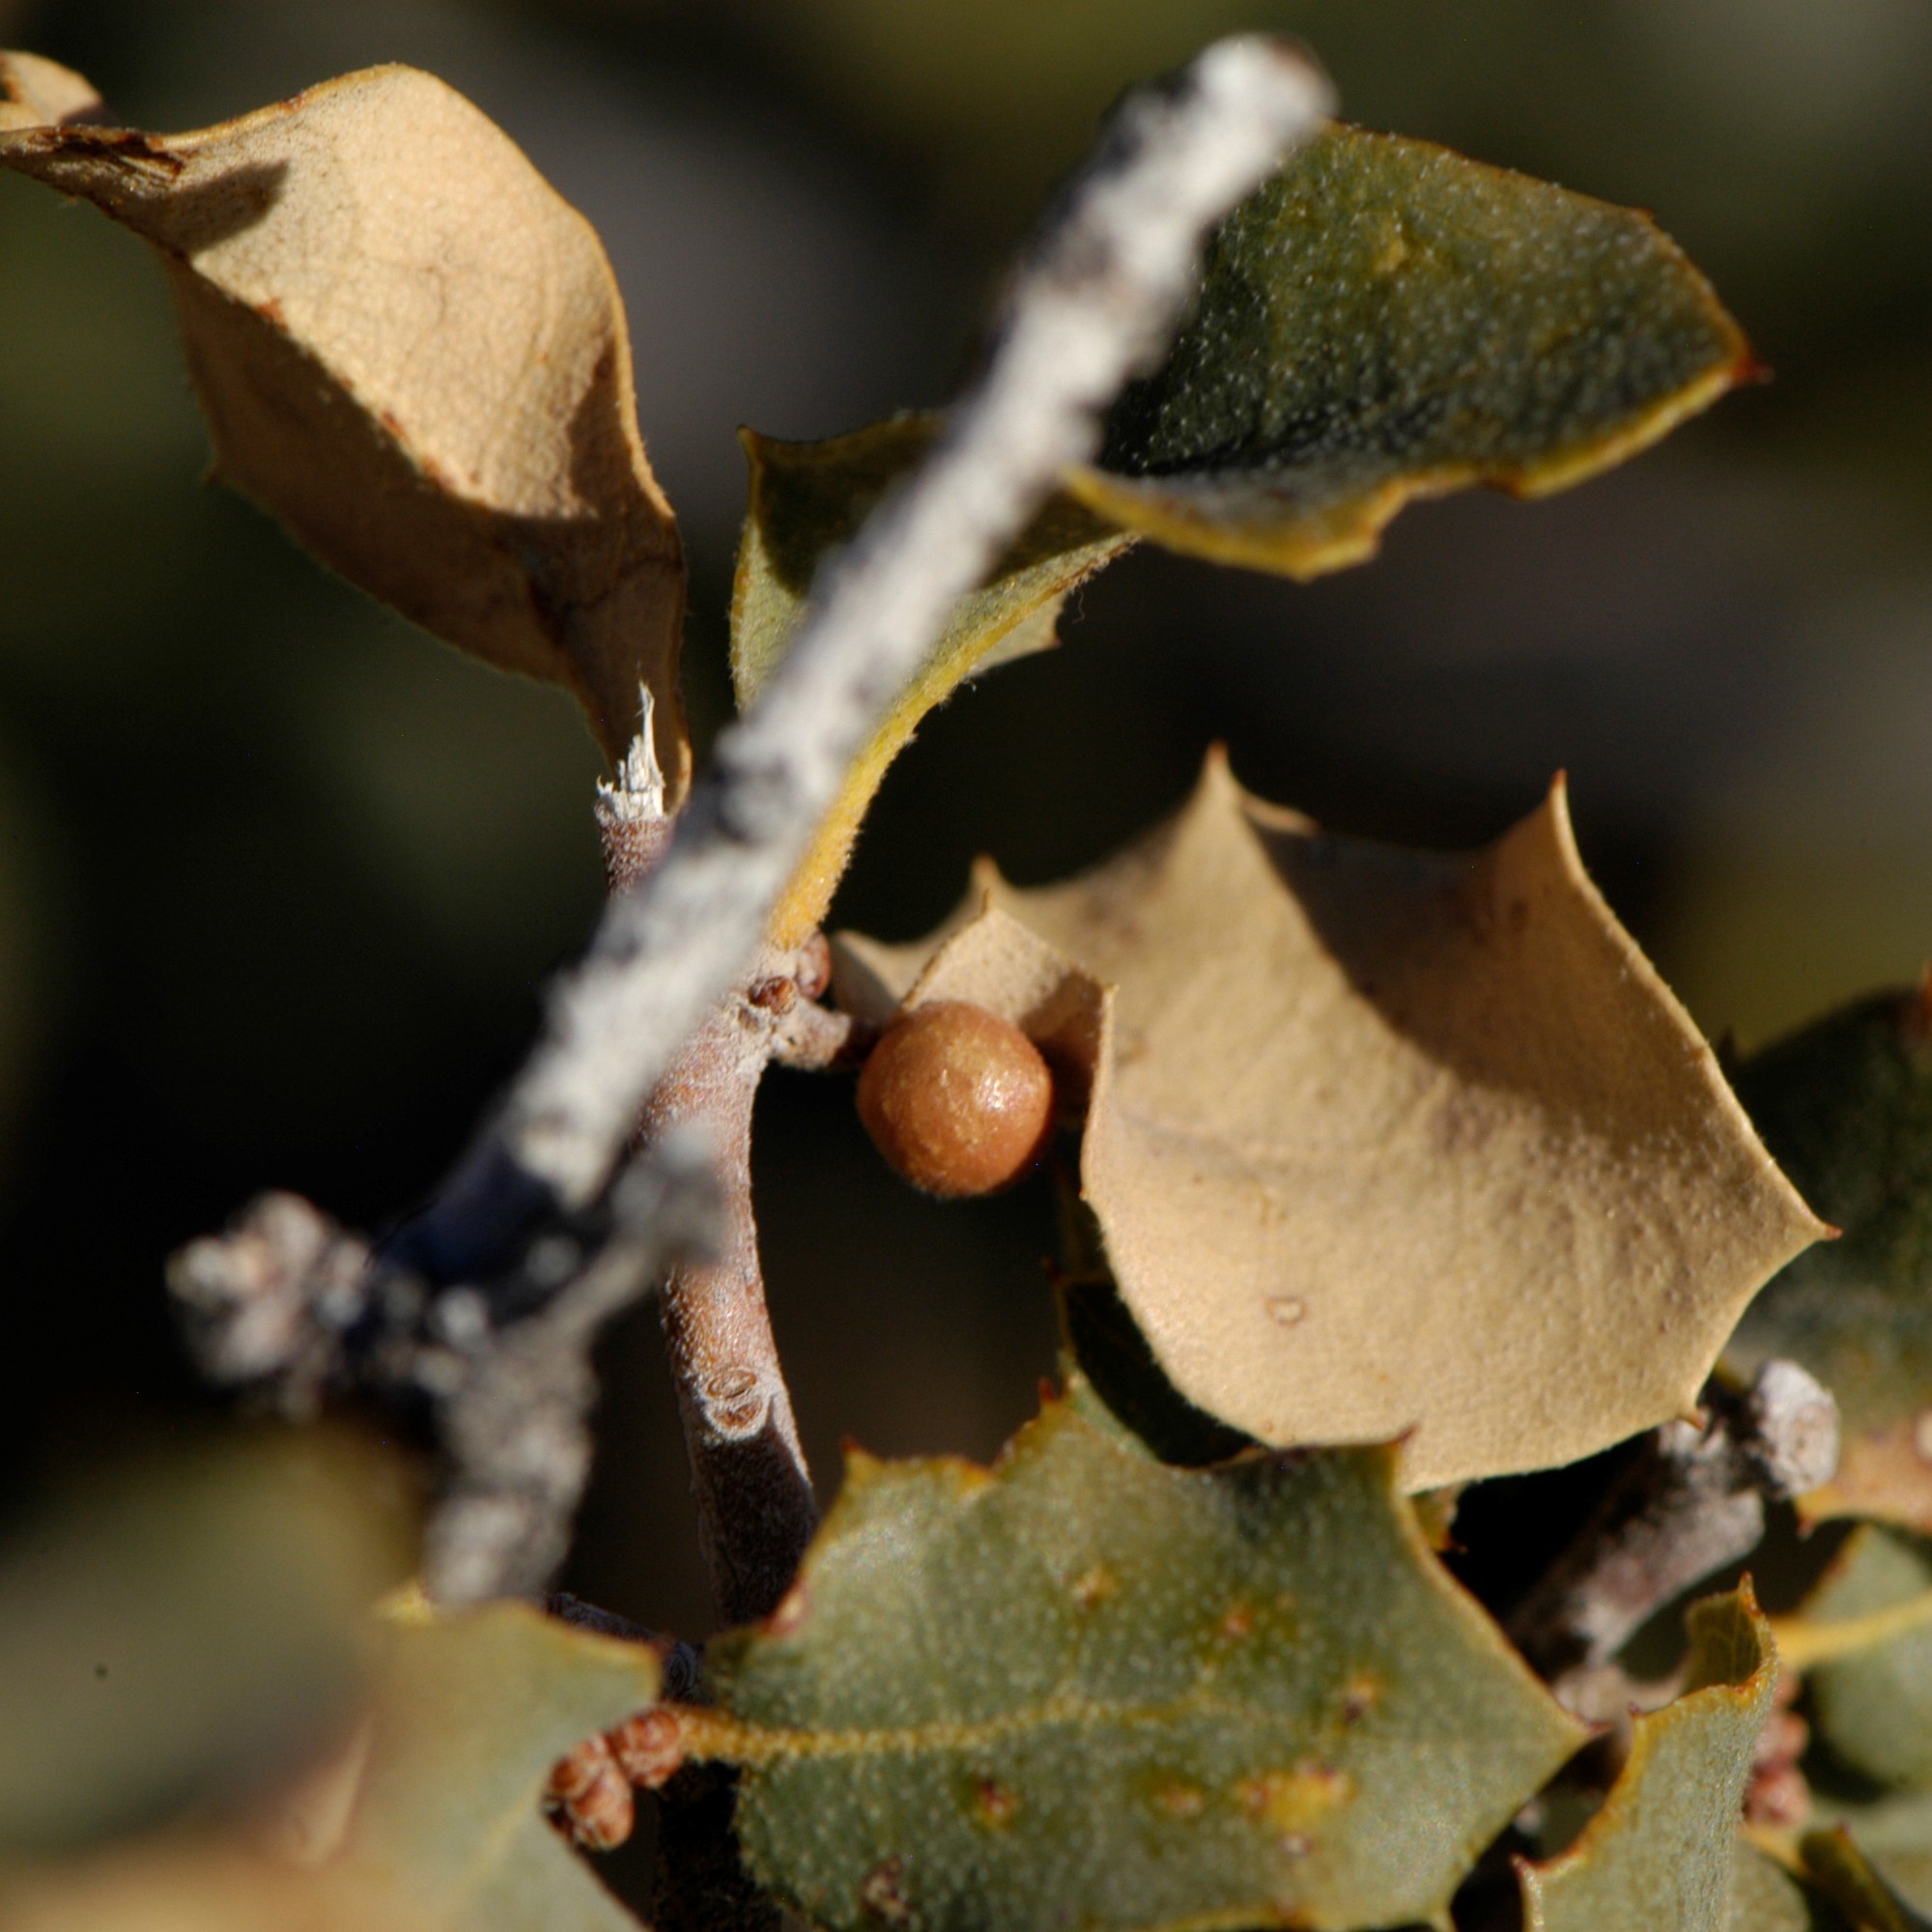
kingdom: Animalia
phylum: Arthropoda
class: Insecta
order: Hymenoptera
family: Cynipidae
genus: Biorhiza
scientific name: Biorhiza
